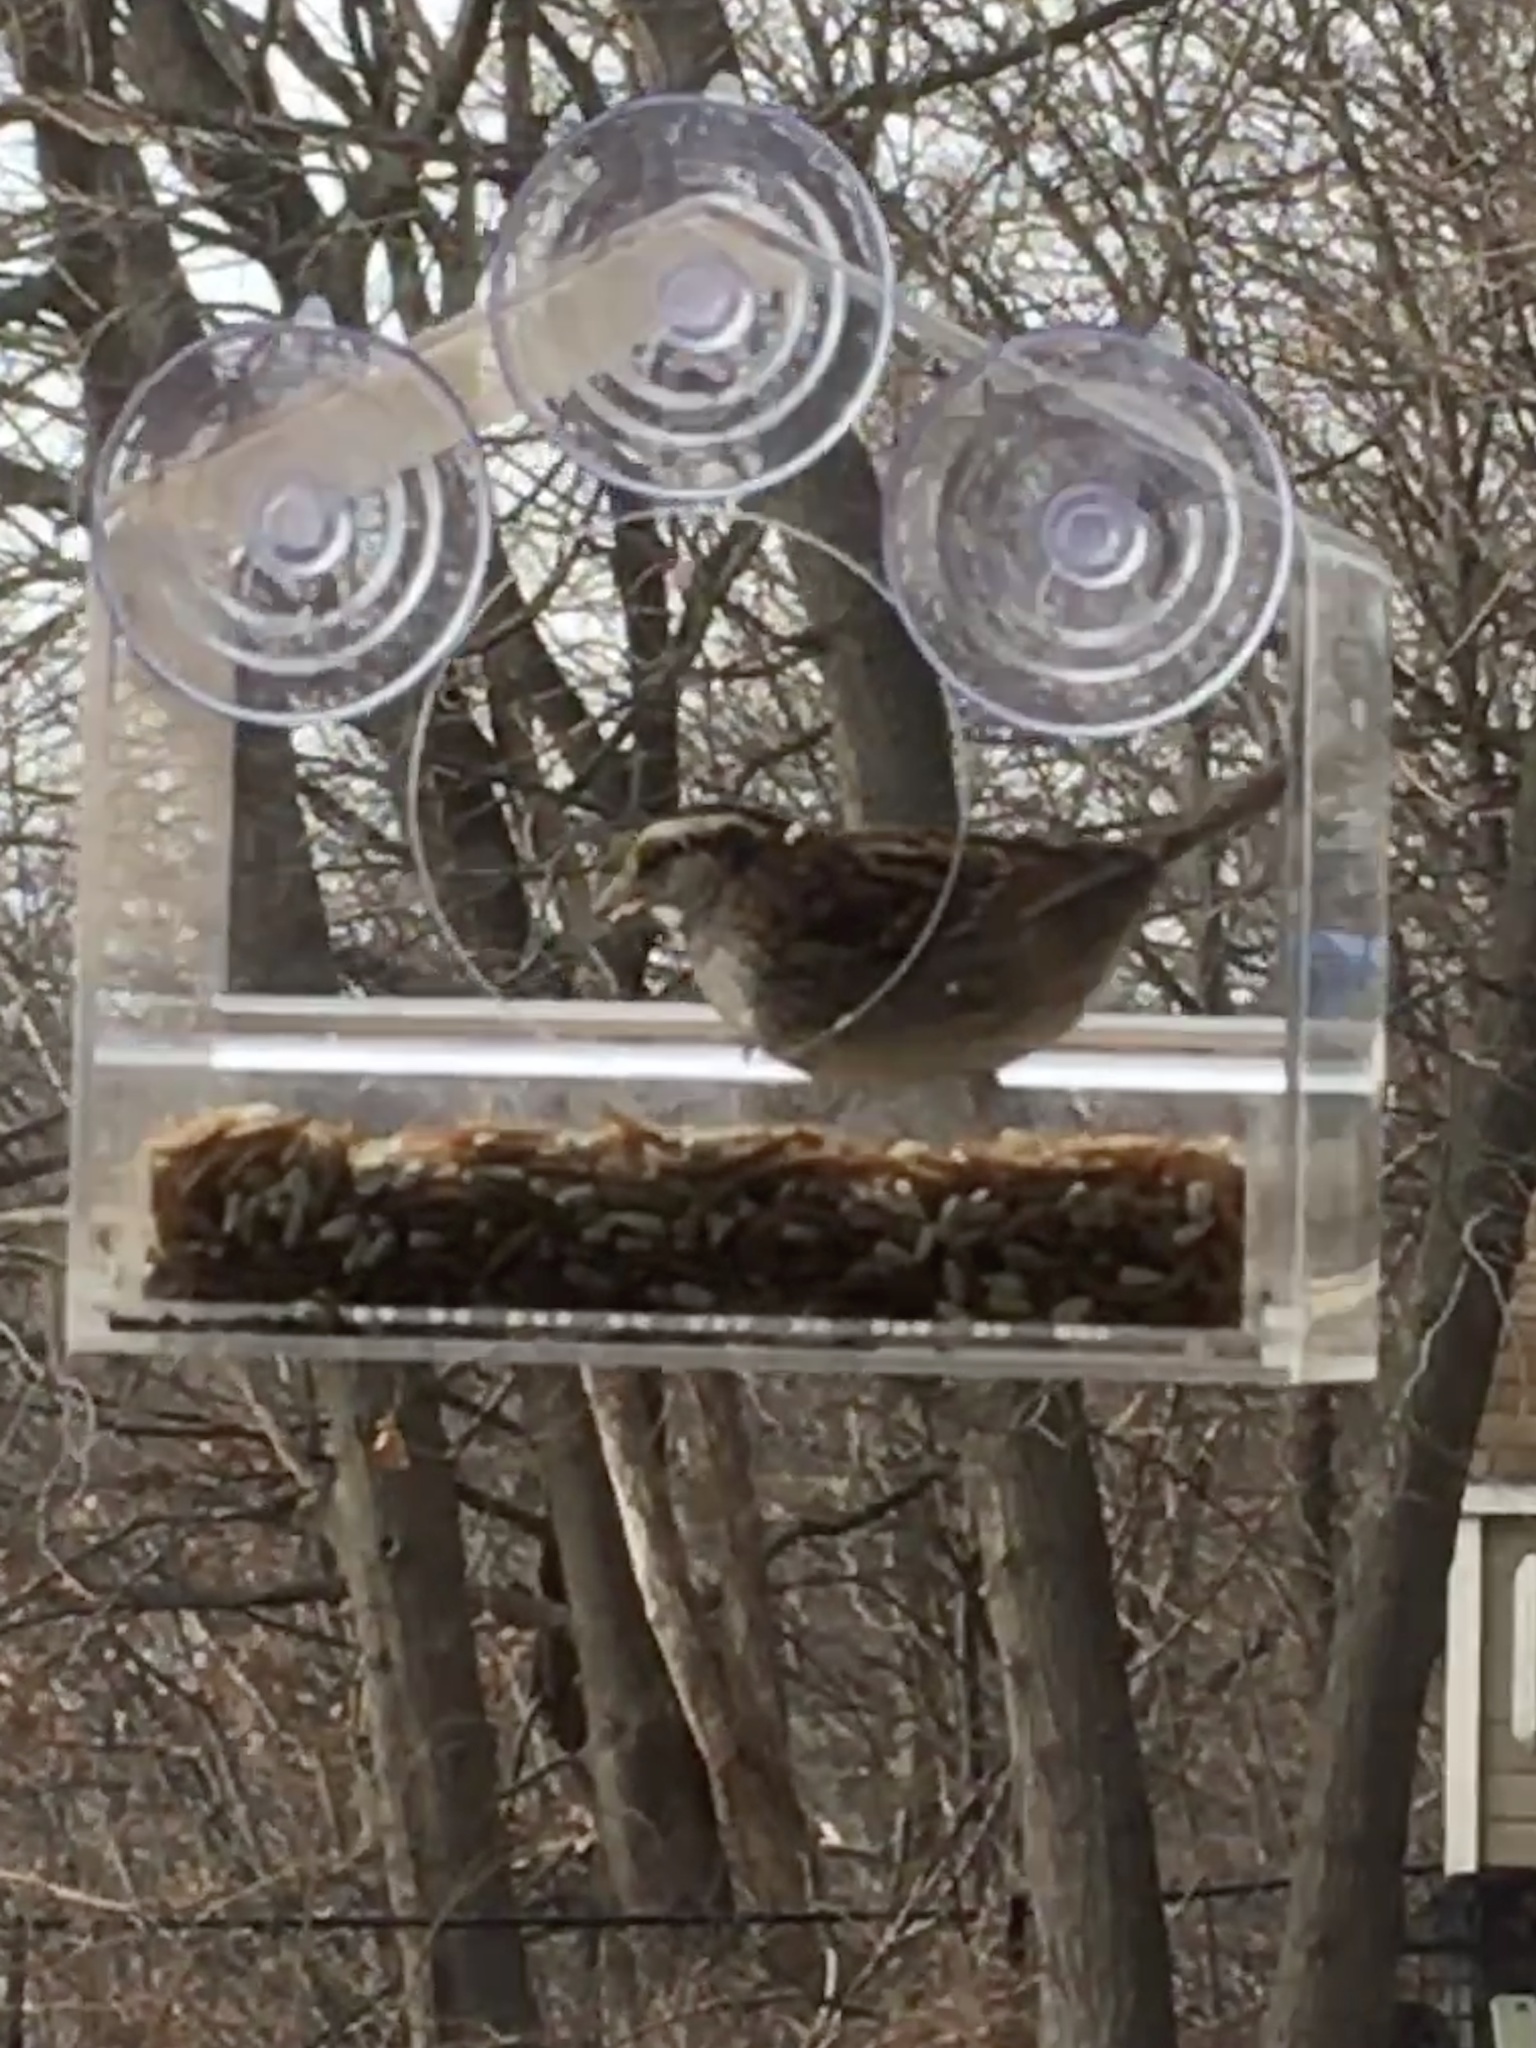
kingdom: Animalia
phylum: Chordata
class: Aves
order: Passeriformes
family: Passerellidae
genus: Zonotrichia
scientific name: Zonotrichia albicollis
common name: White-throated sparrow
